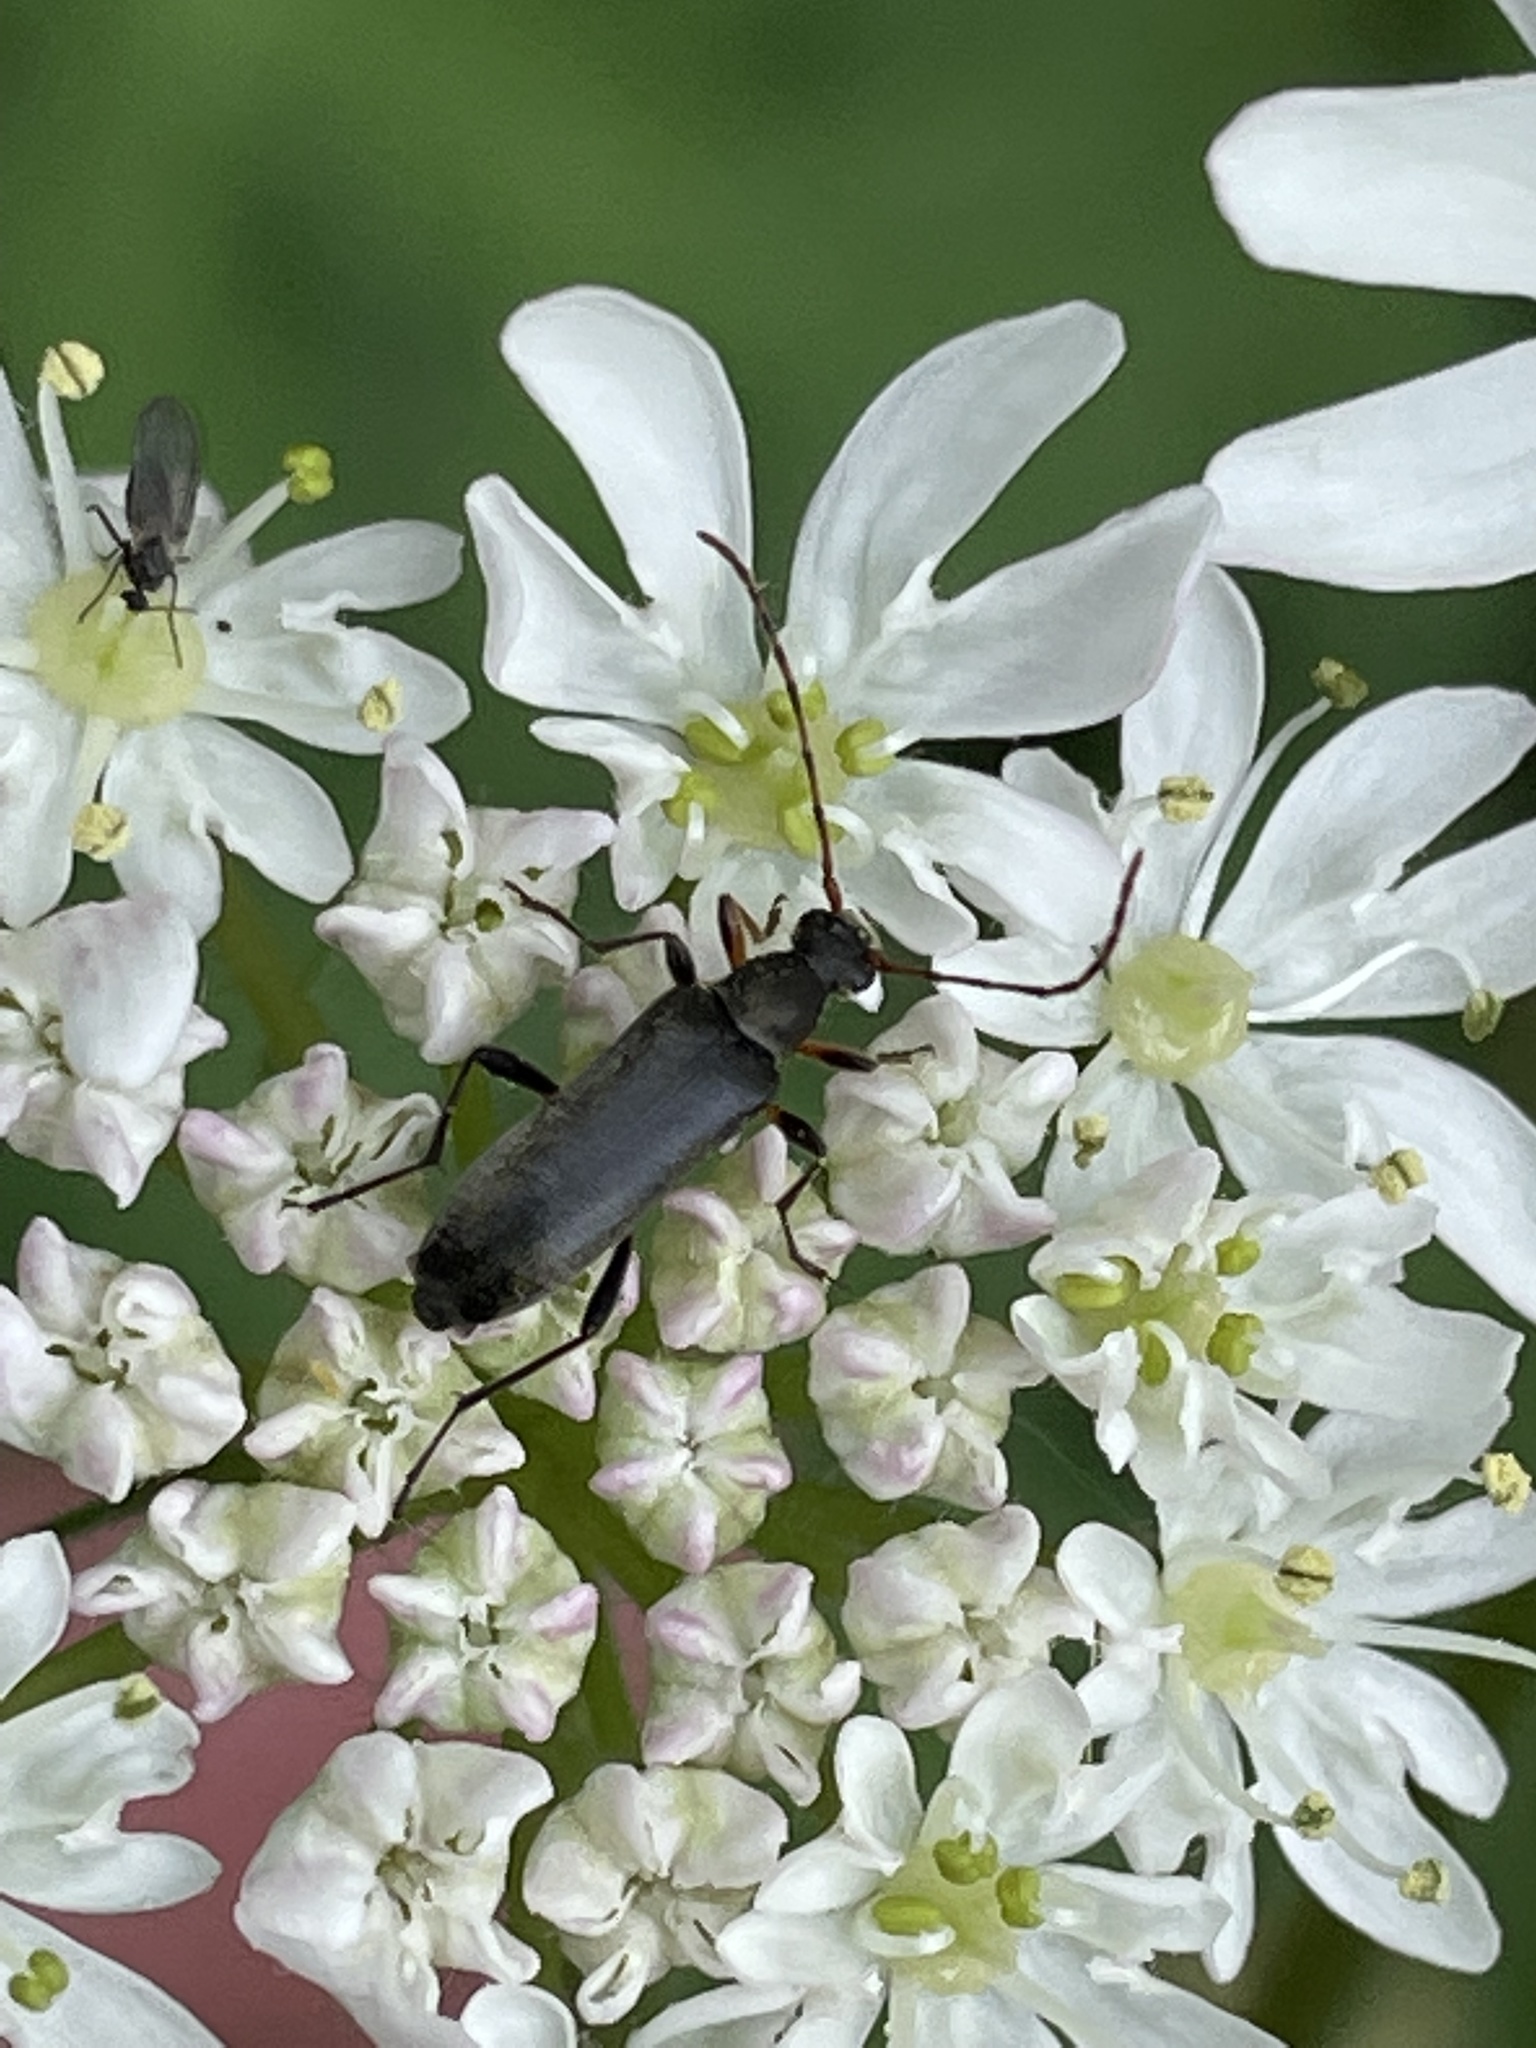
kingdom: Animalia
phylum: Arthropoda
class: Insecta
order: Coleoptera
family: Cerambycidae
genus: Grammoptera
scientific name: Grammoptera ruficornis
